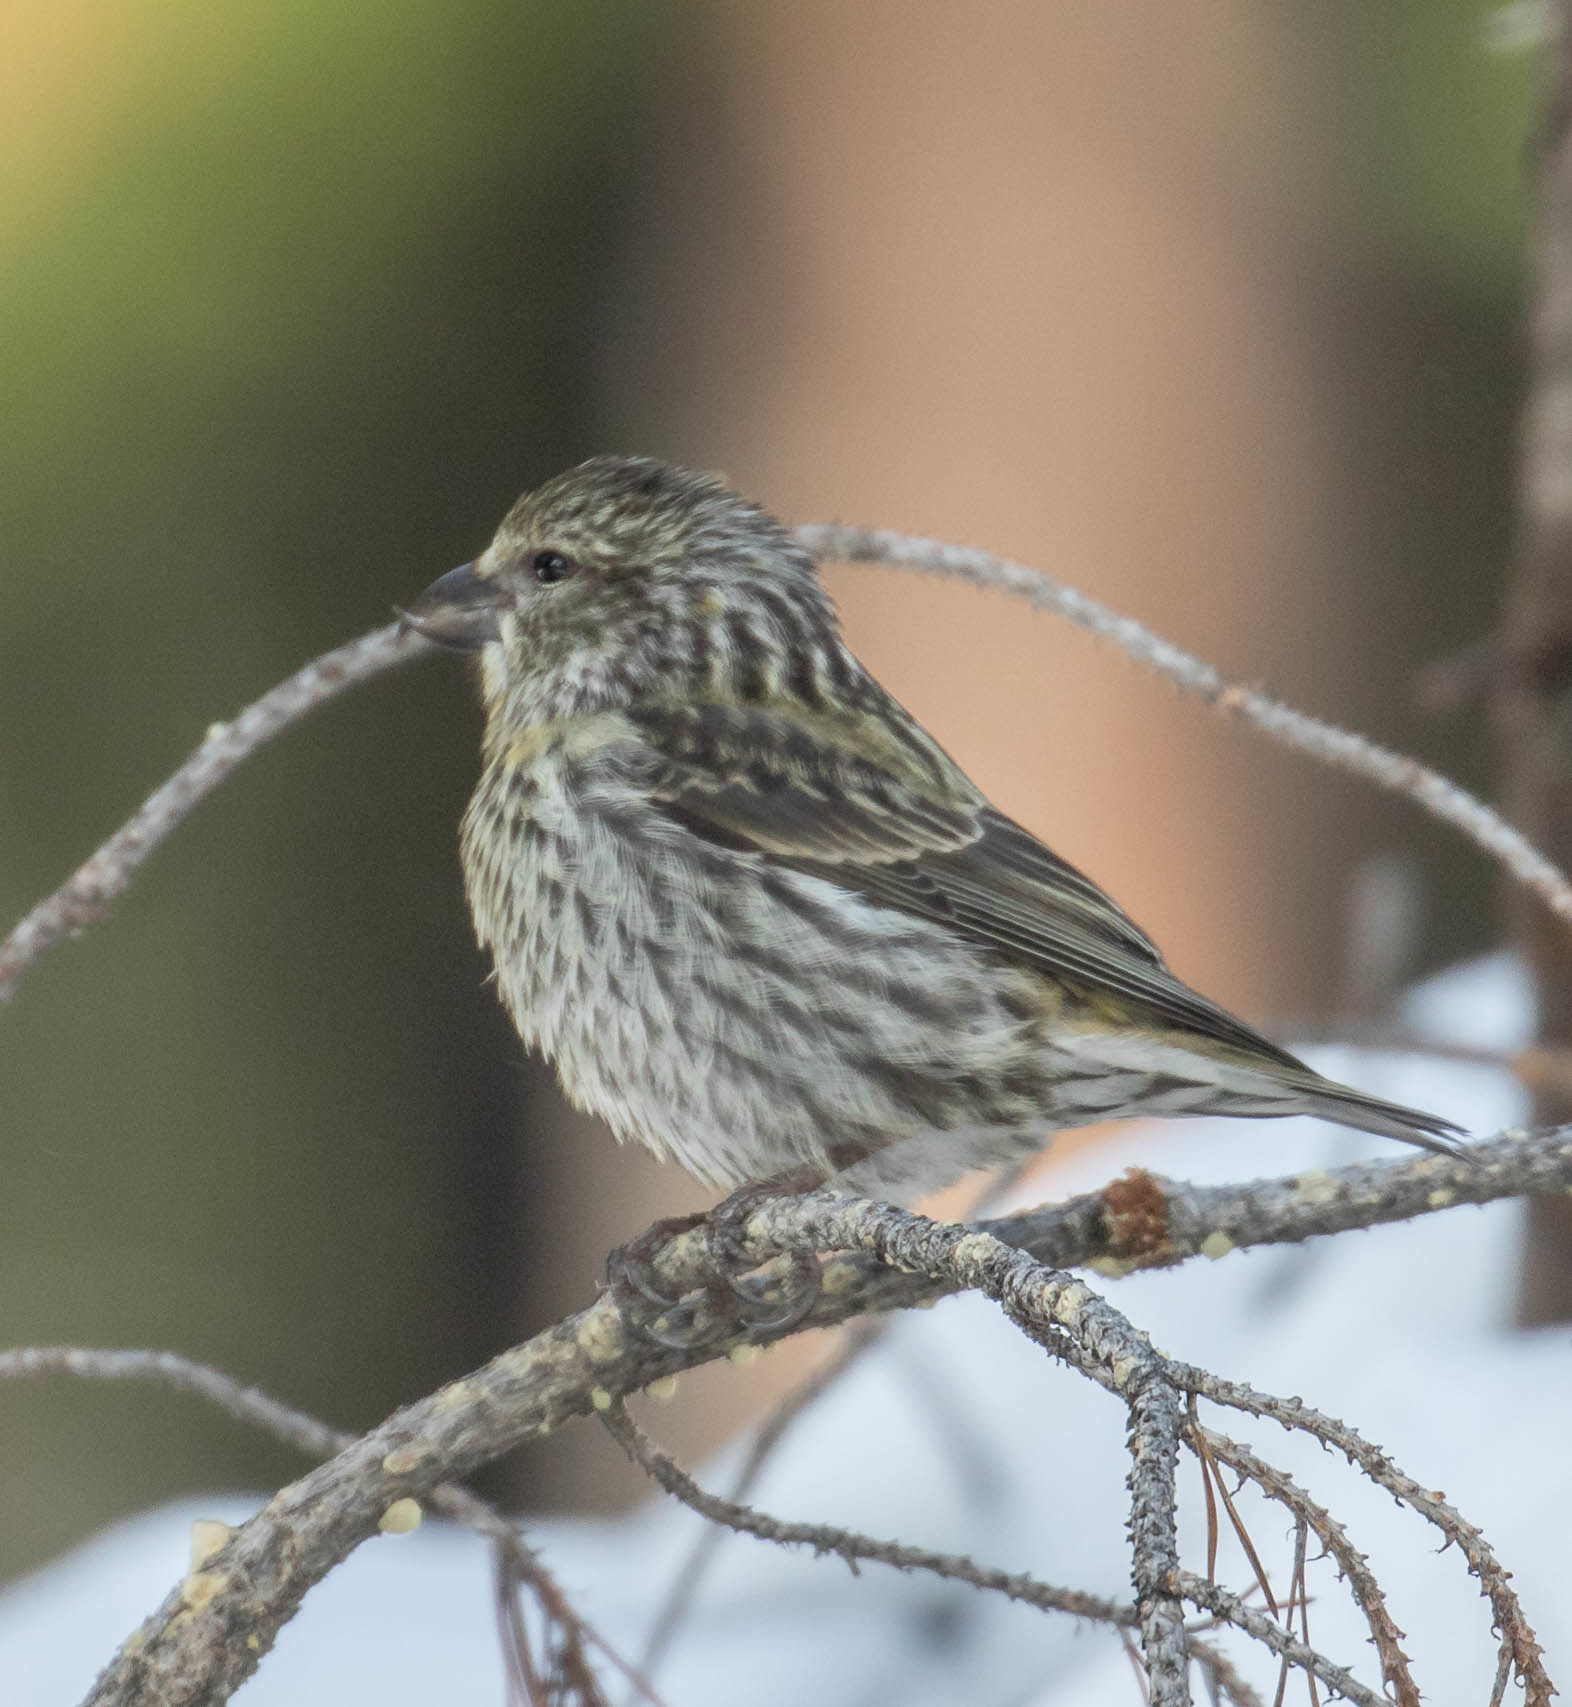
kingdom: Animalia
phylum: Chordata
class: Aves
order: Passeriformes
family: Fringillidae
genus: Loxia
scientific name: Loxia sinesciuris
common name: Cassia crossbill
